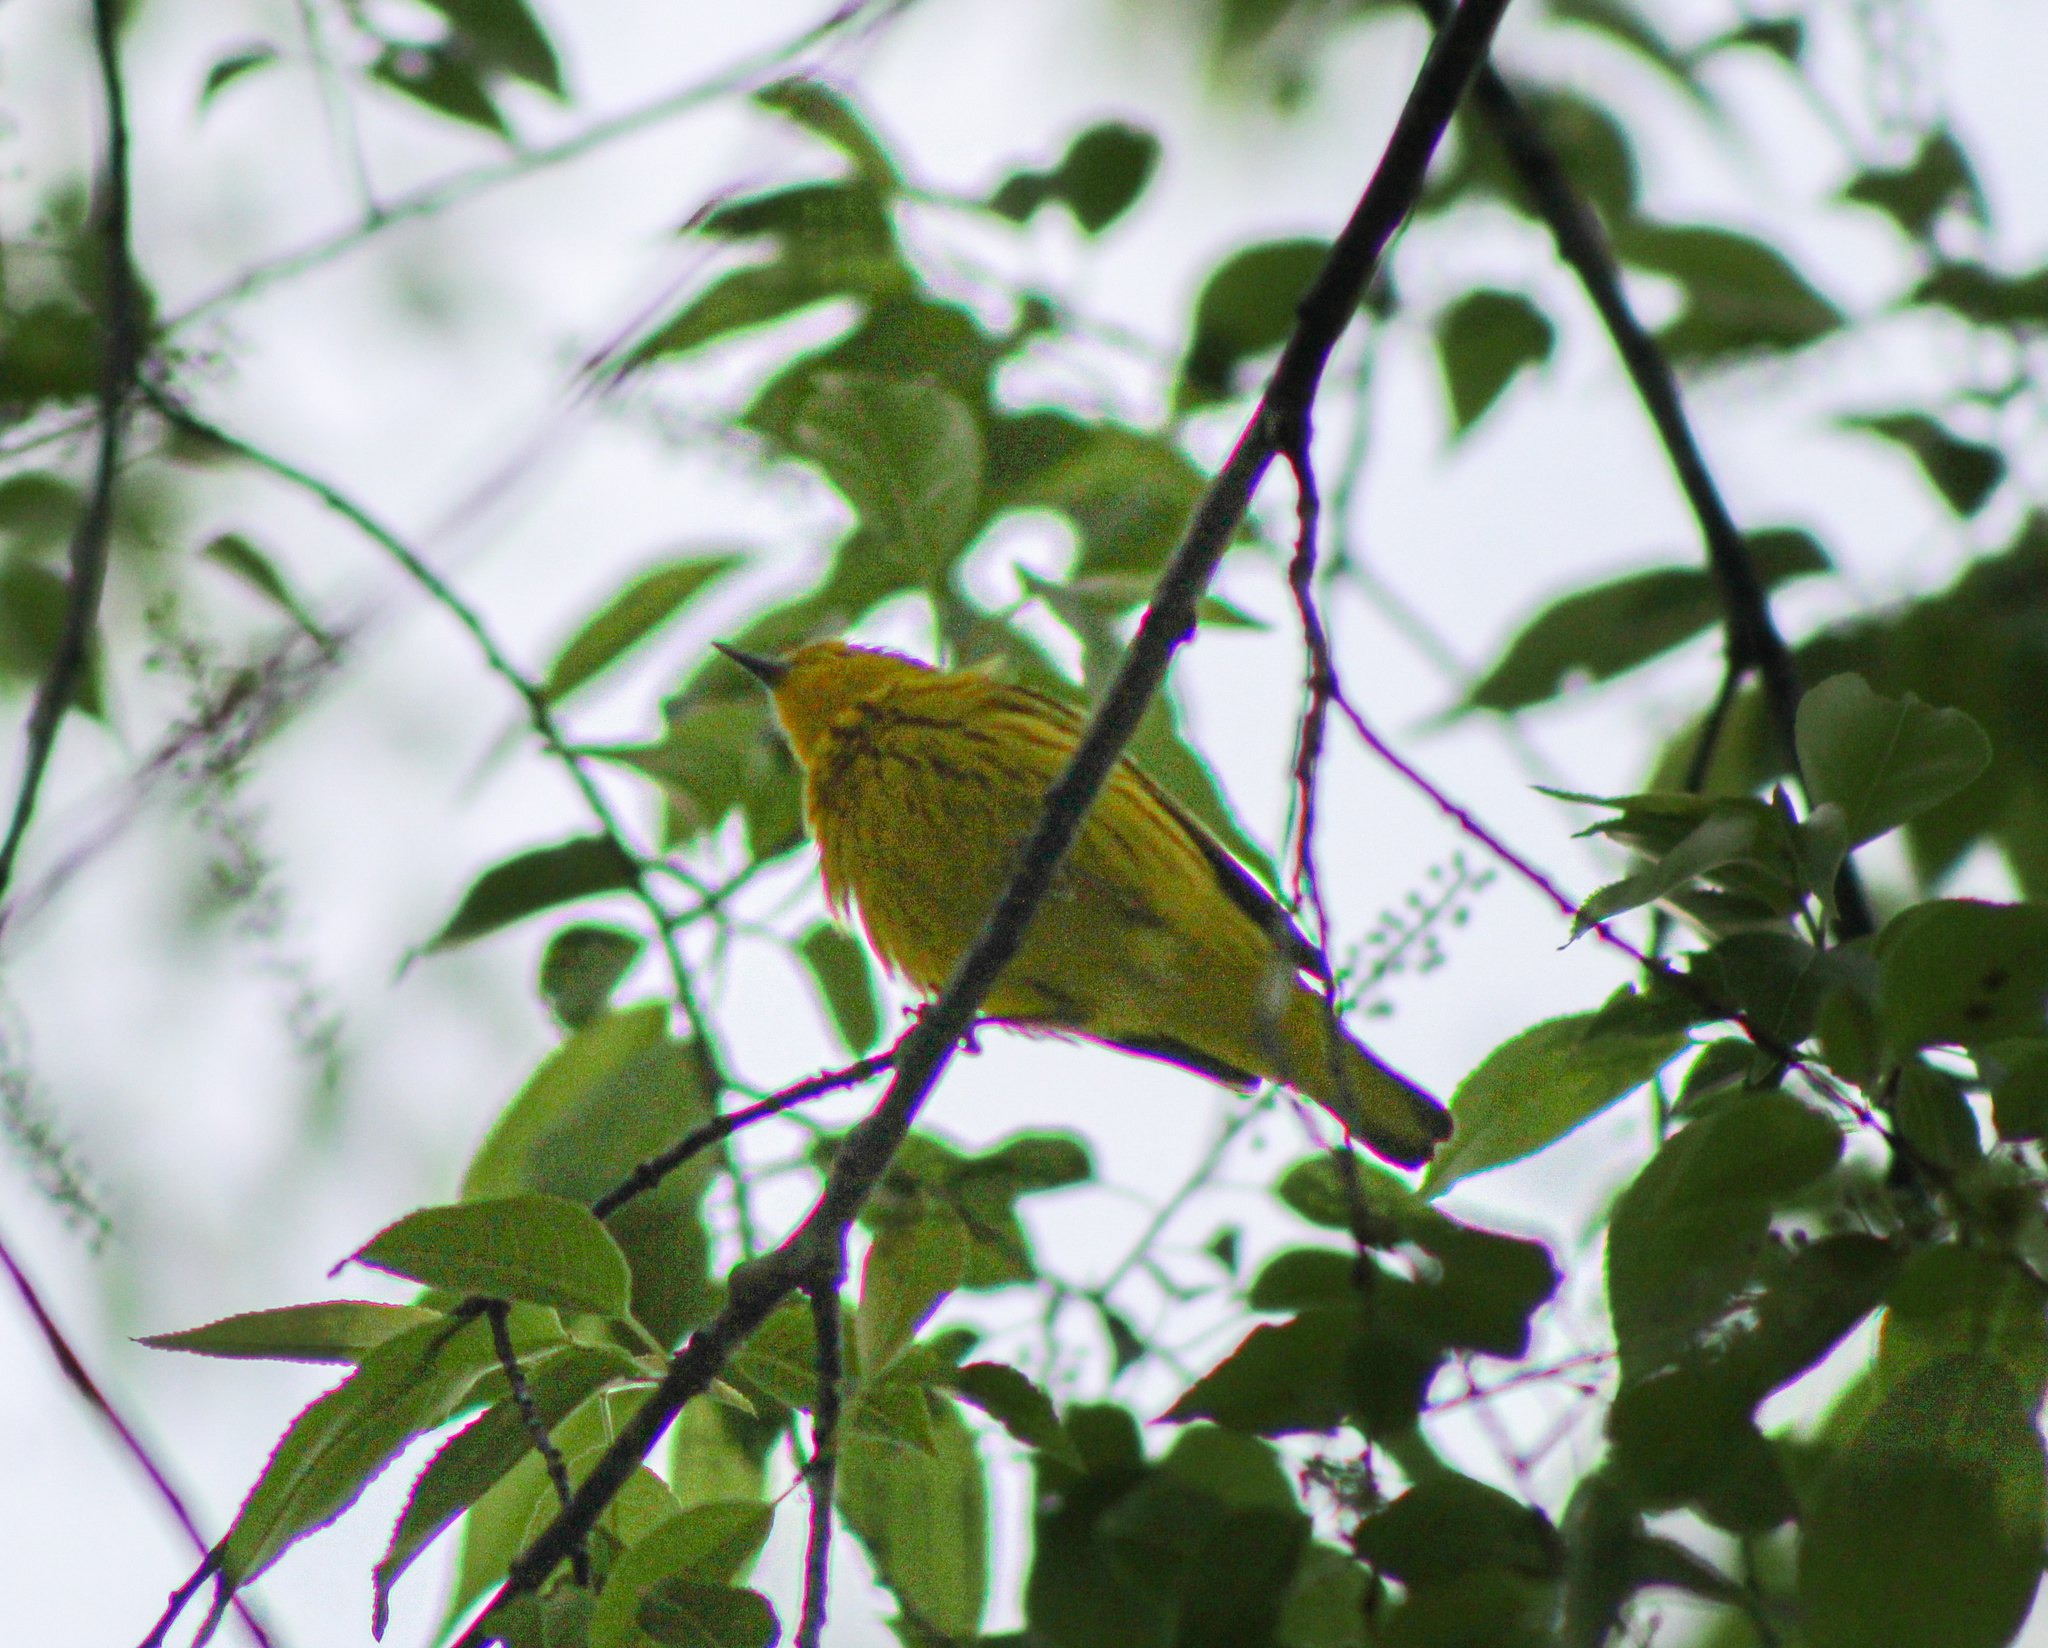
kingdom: Animalia
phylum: Chordata
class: Aves
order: Passeriformes
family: Parulidae
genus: Setophaga
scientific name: Setophaga petechia
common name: Yellow warbler
